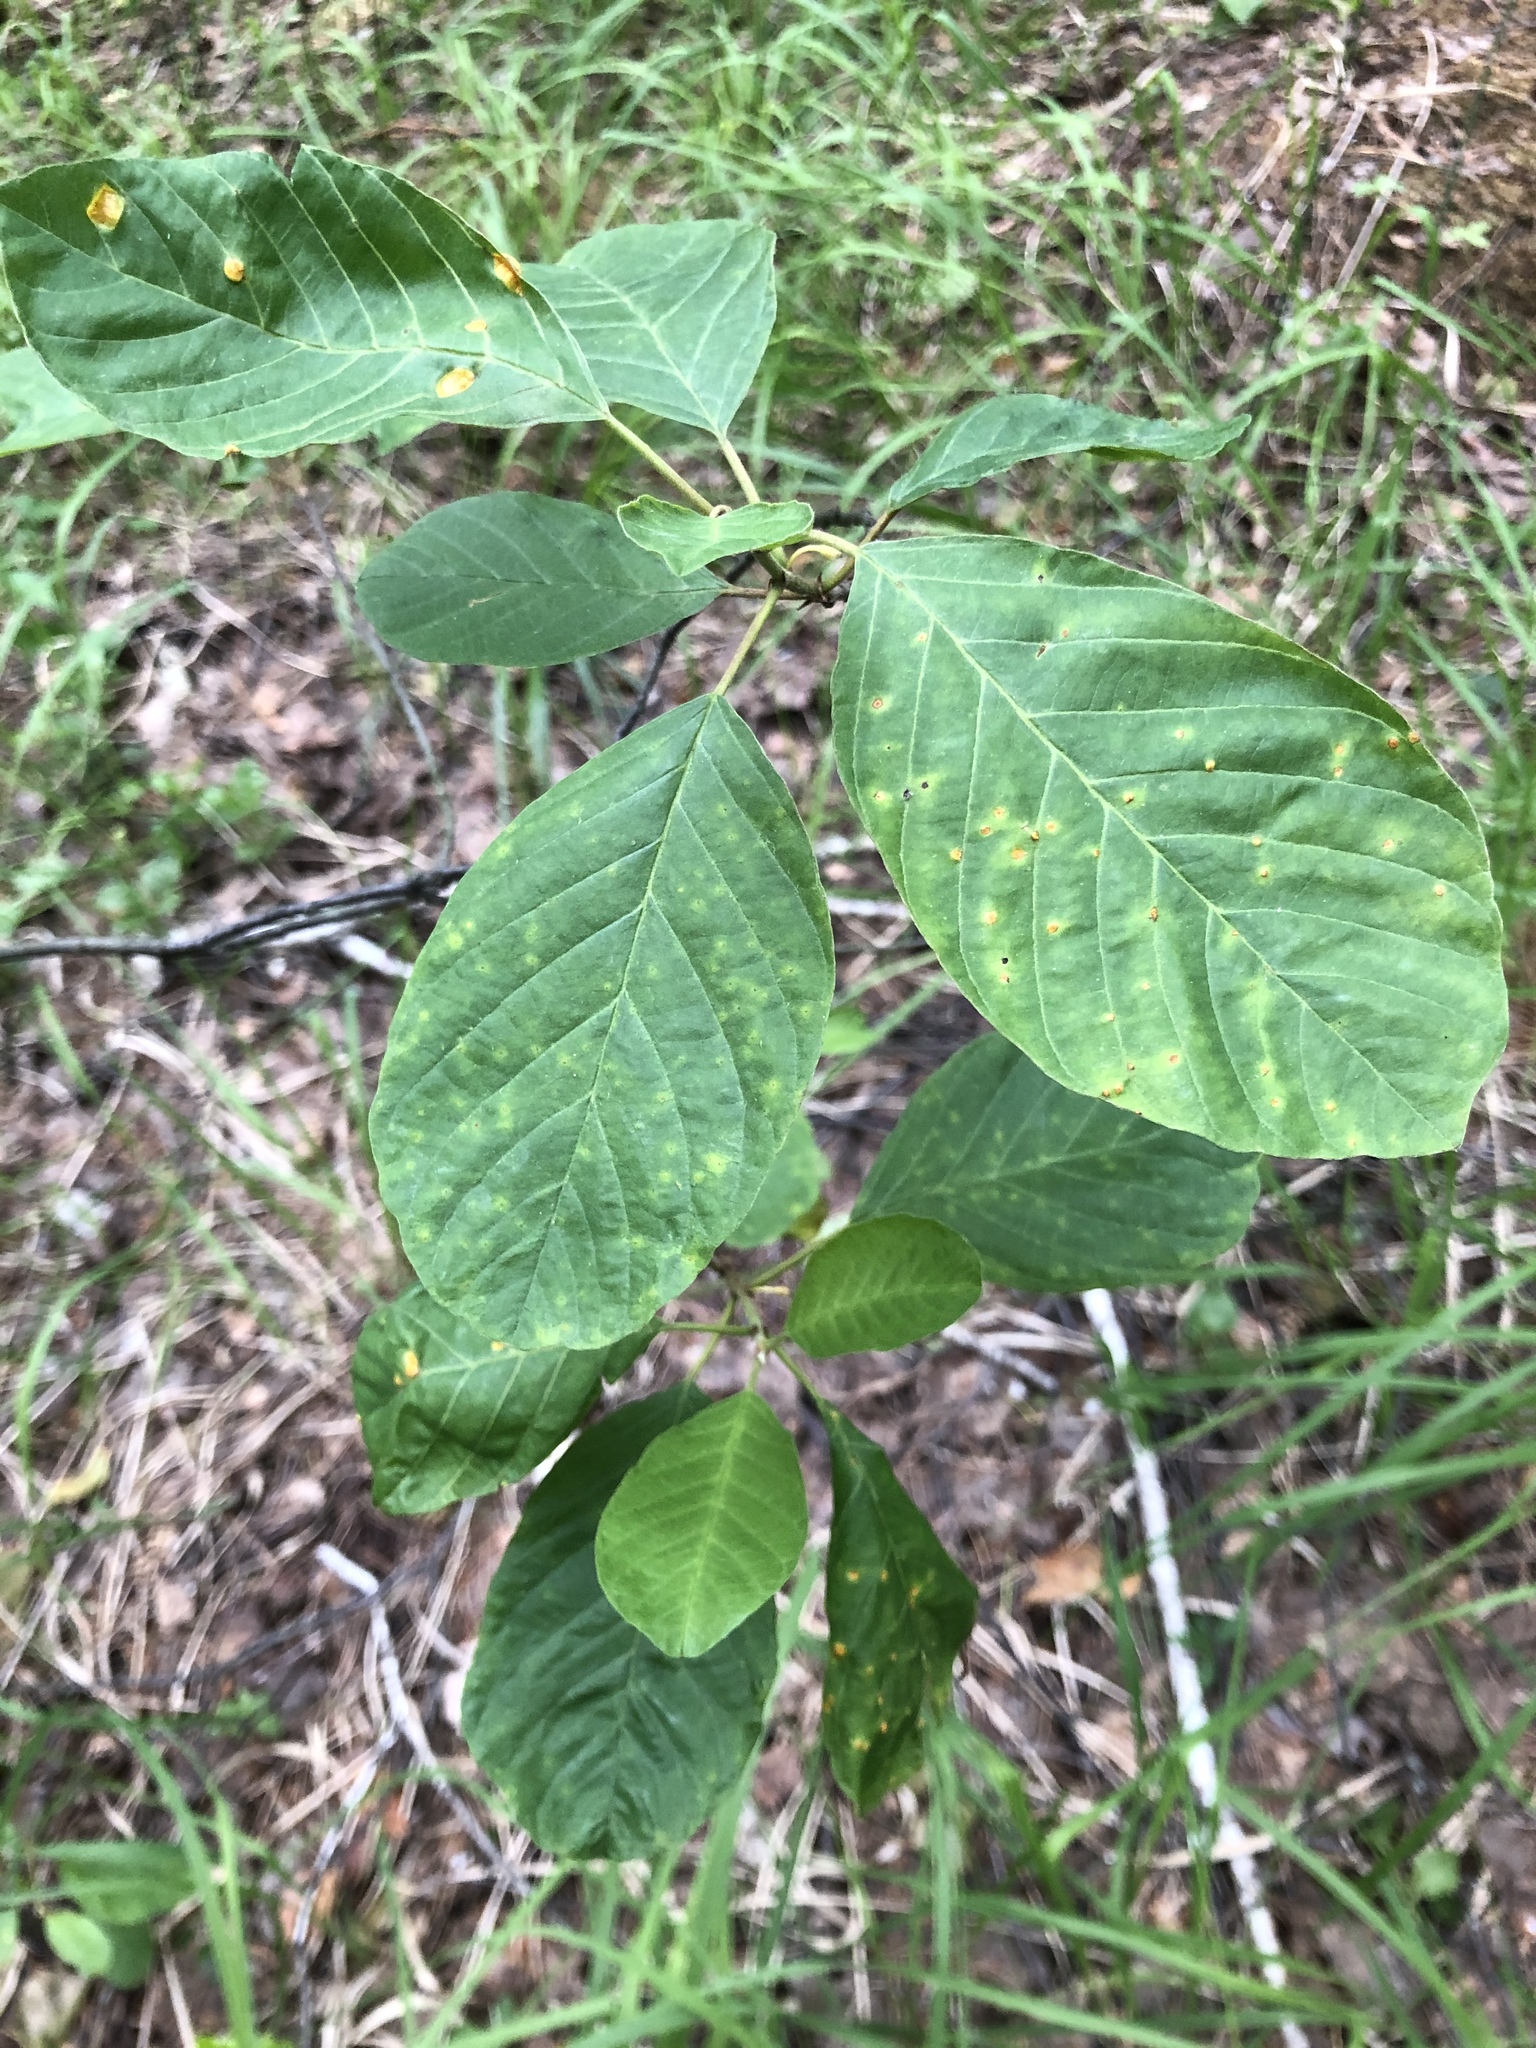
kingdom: Plantae
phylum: Tracheophyta
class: Magnoliopsida
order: Rosales
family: Rhamnaceae
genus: Frangula
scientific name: Frangula alnus
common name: Alder buckthorn
